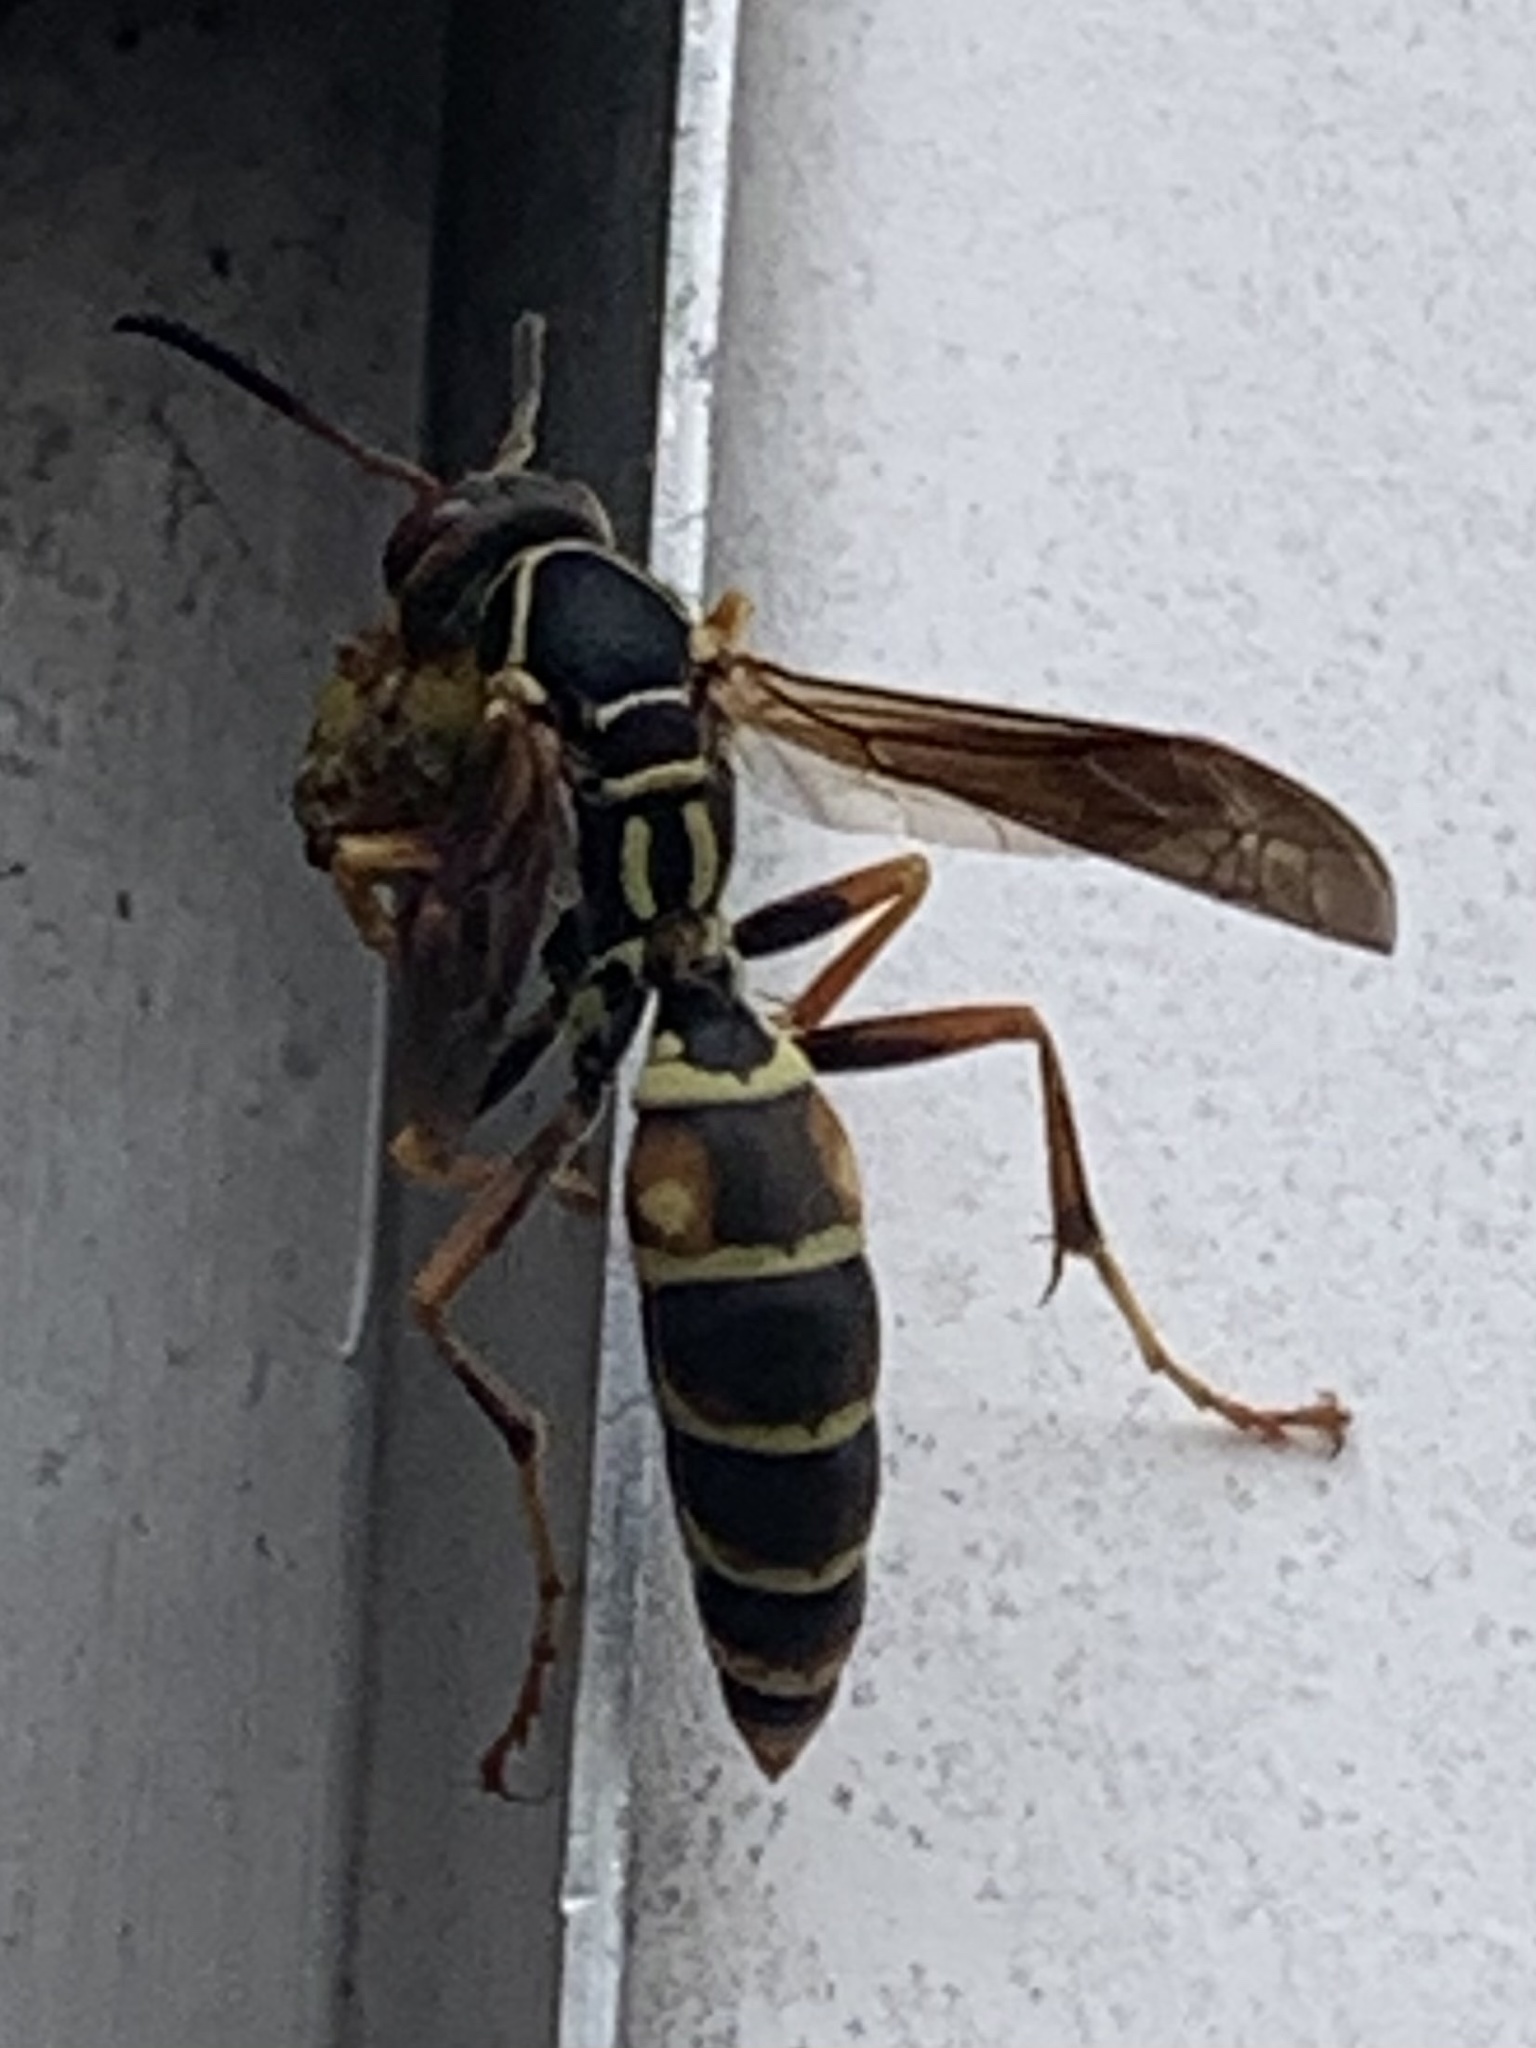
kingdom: Animalia
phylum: Arthropoda
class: Insecta
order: Hymenoptera
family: Eumenidae
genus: Polistes
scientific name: Polistes fuscatus
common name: Dark paper wasp
